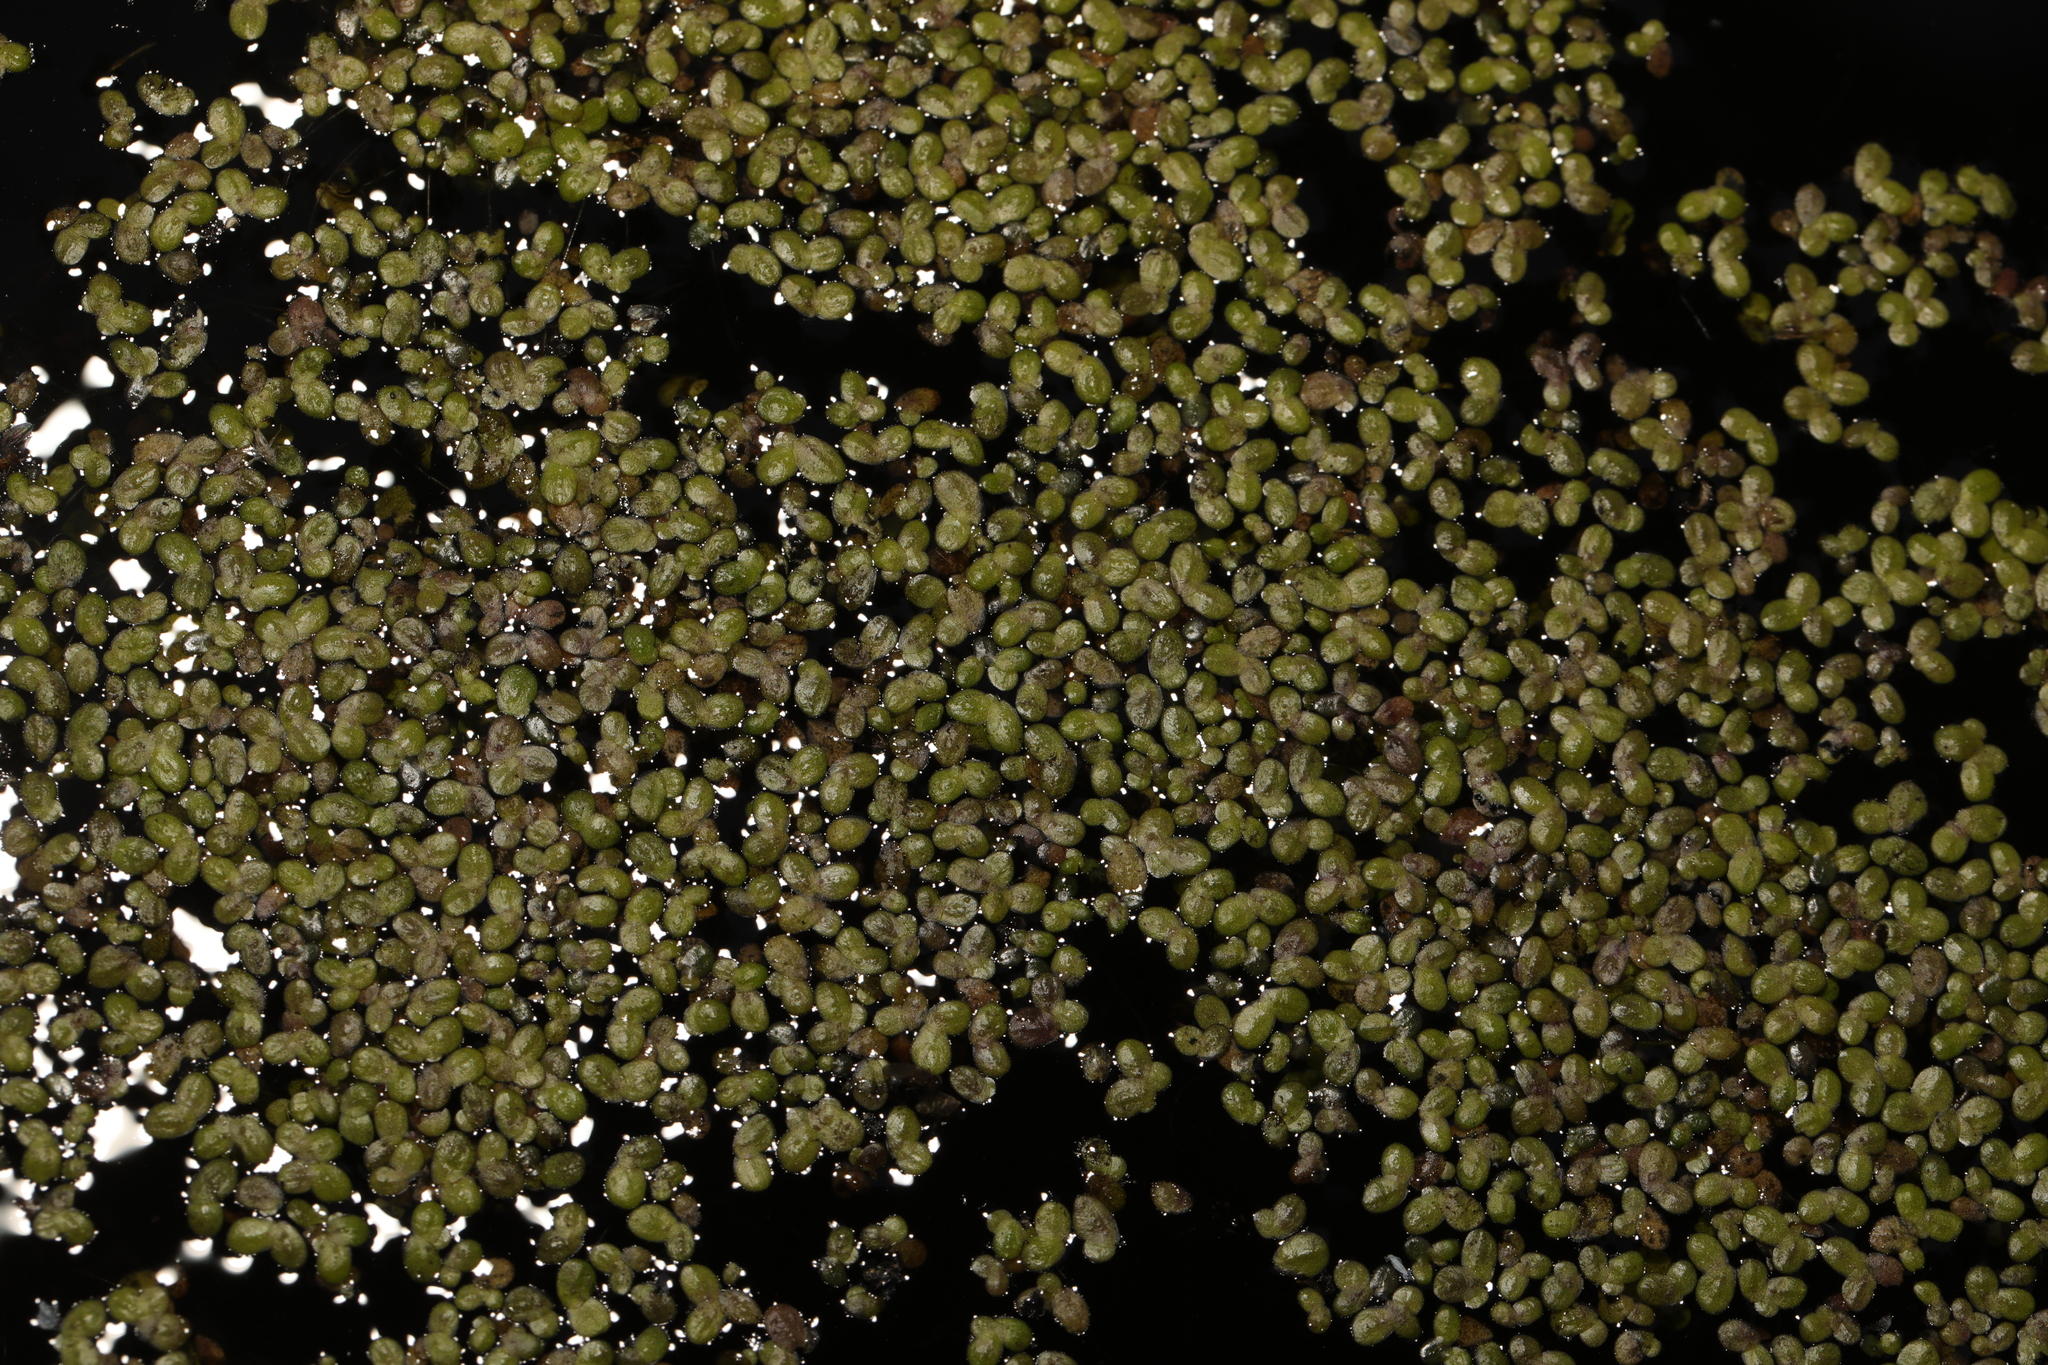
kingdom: Plantae
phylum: Tracheophyta
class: Liliopsida
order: Alismatales
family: Araceae
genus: Lemna
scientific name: Lemna minor
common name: Common duckweed
